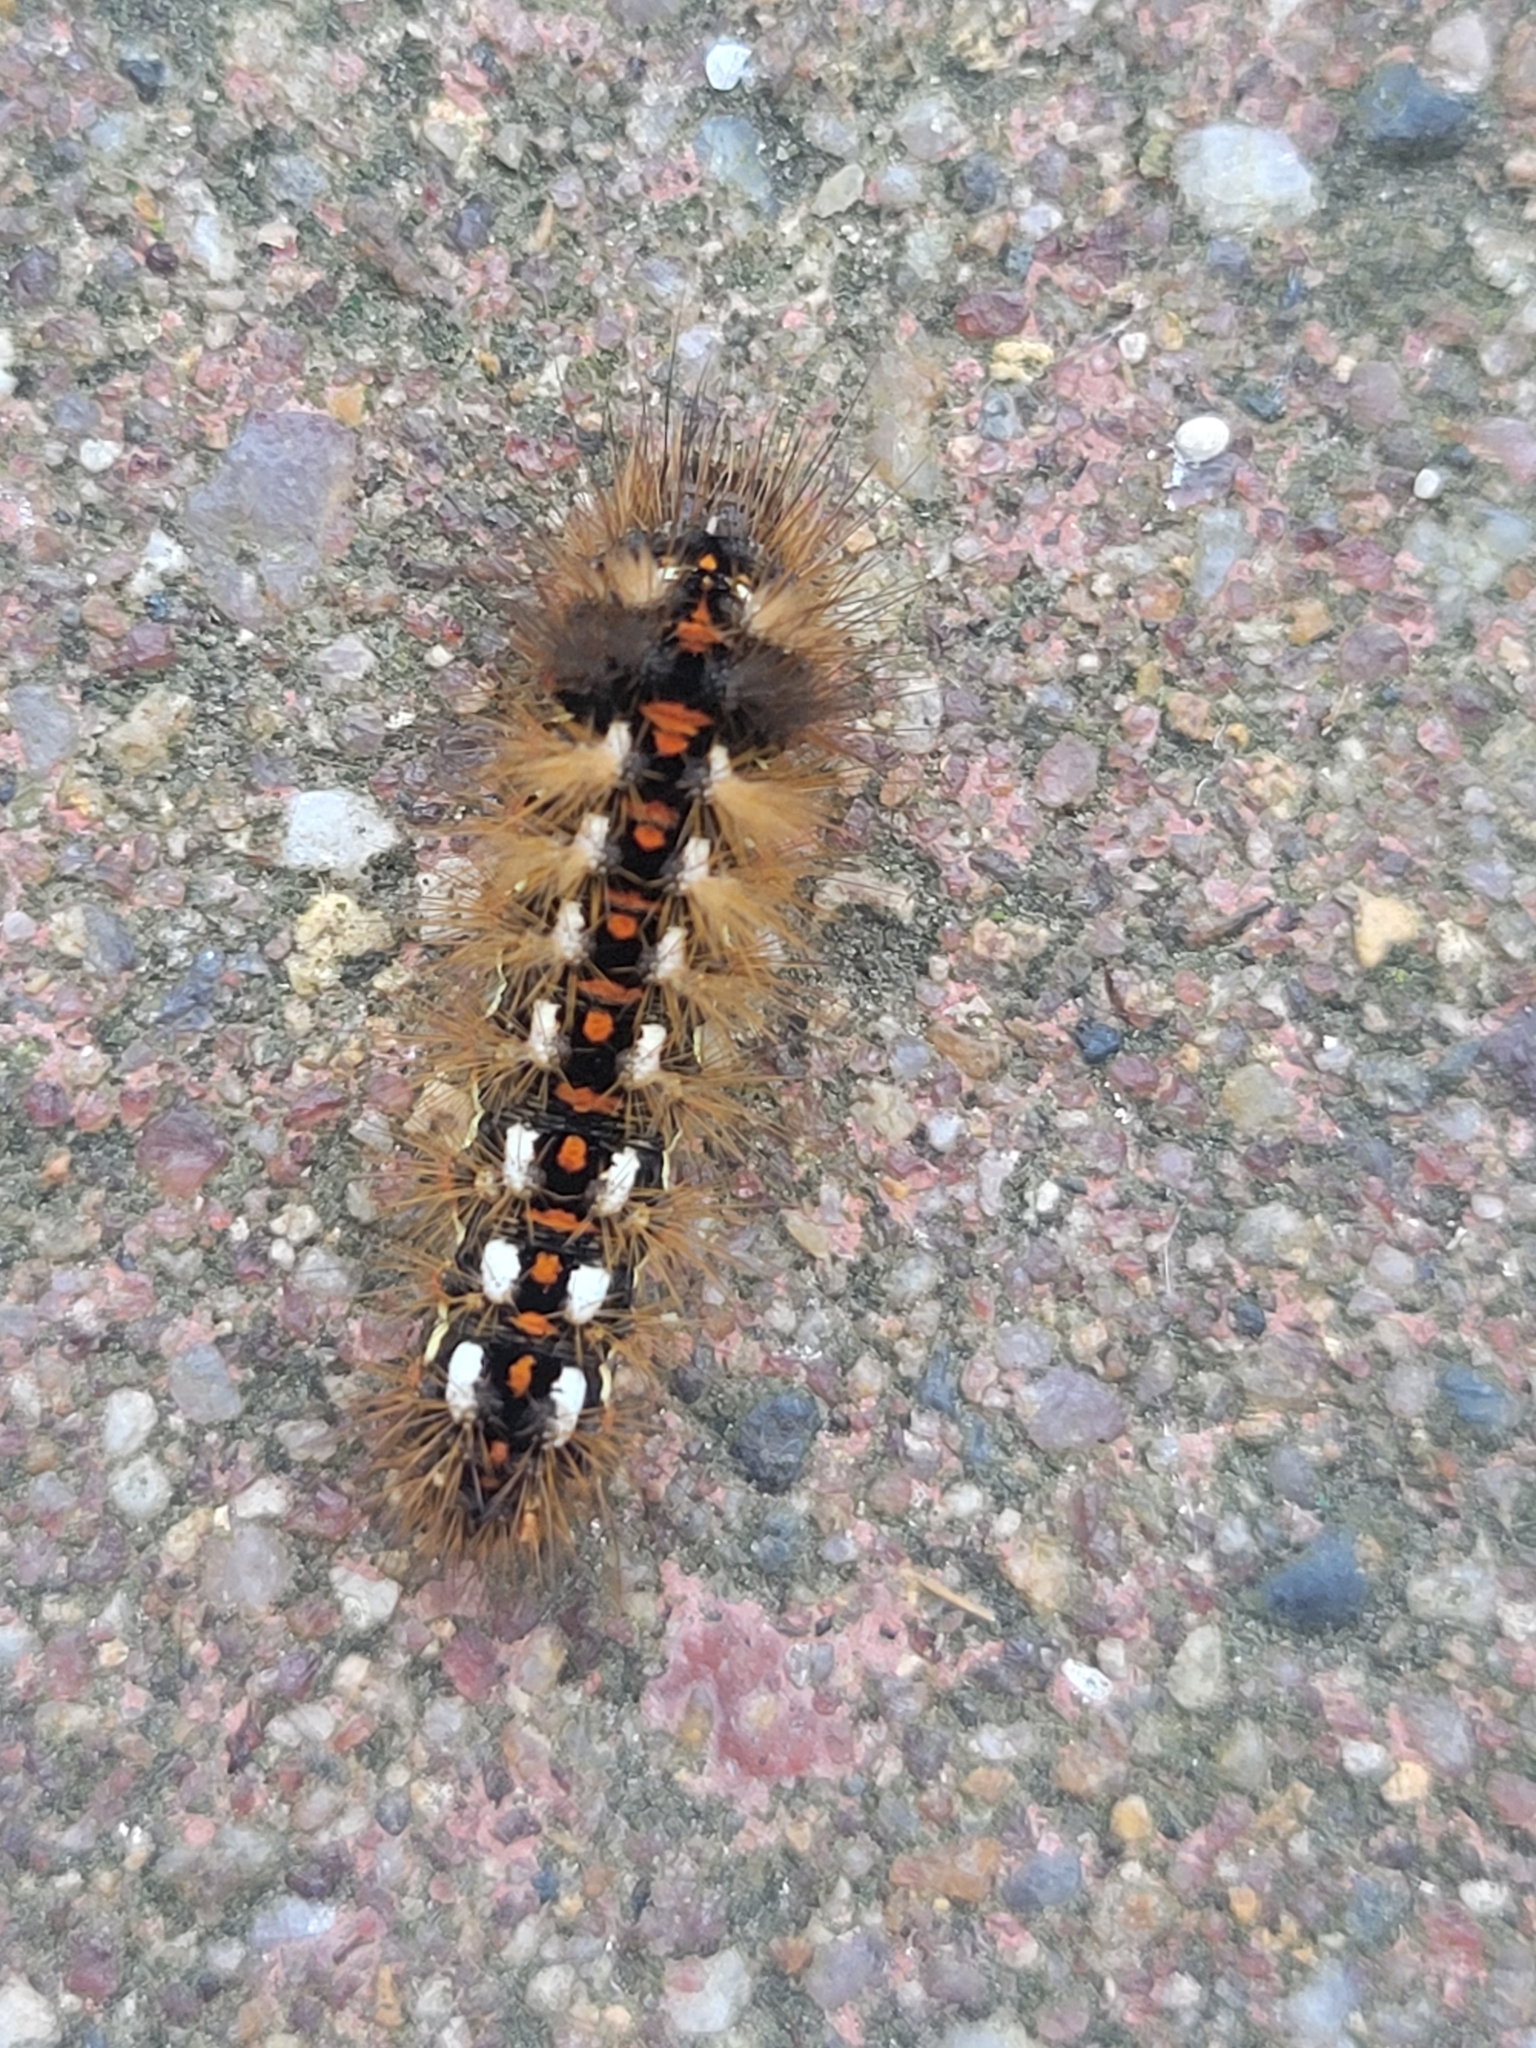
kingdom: Animalia
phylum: Arthropoda
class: Insecta
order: Lepidoptera
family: Noctuidae
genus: Acronicta
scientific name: Acronicta rumicis
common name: Knot grass
